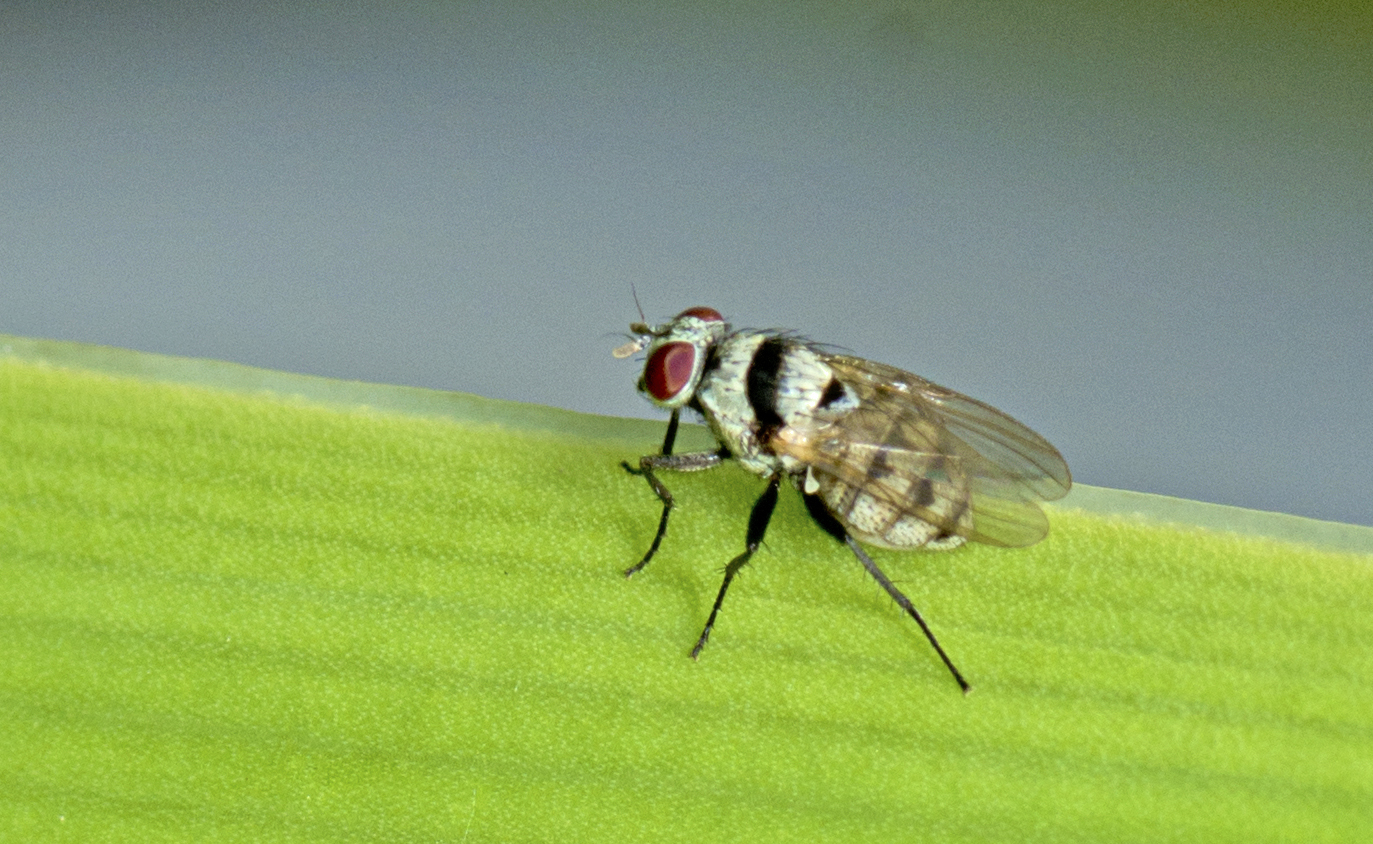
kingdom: Animalia
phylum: Arthropoda
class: Insecta
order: Diptera
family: Anthomyiidae
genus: Anthomyia
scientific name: Anthomyia silvestris
